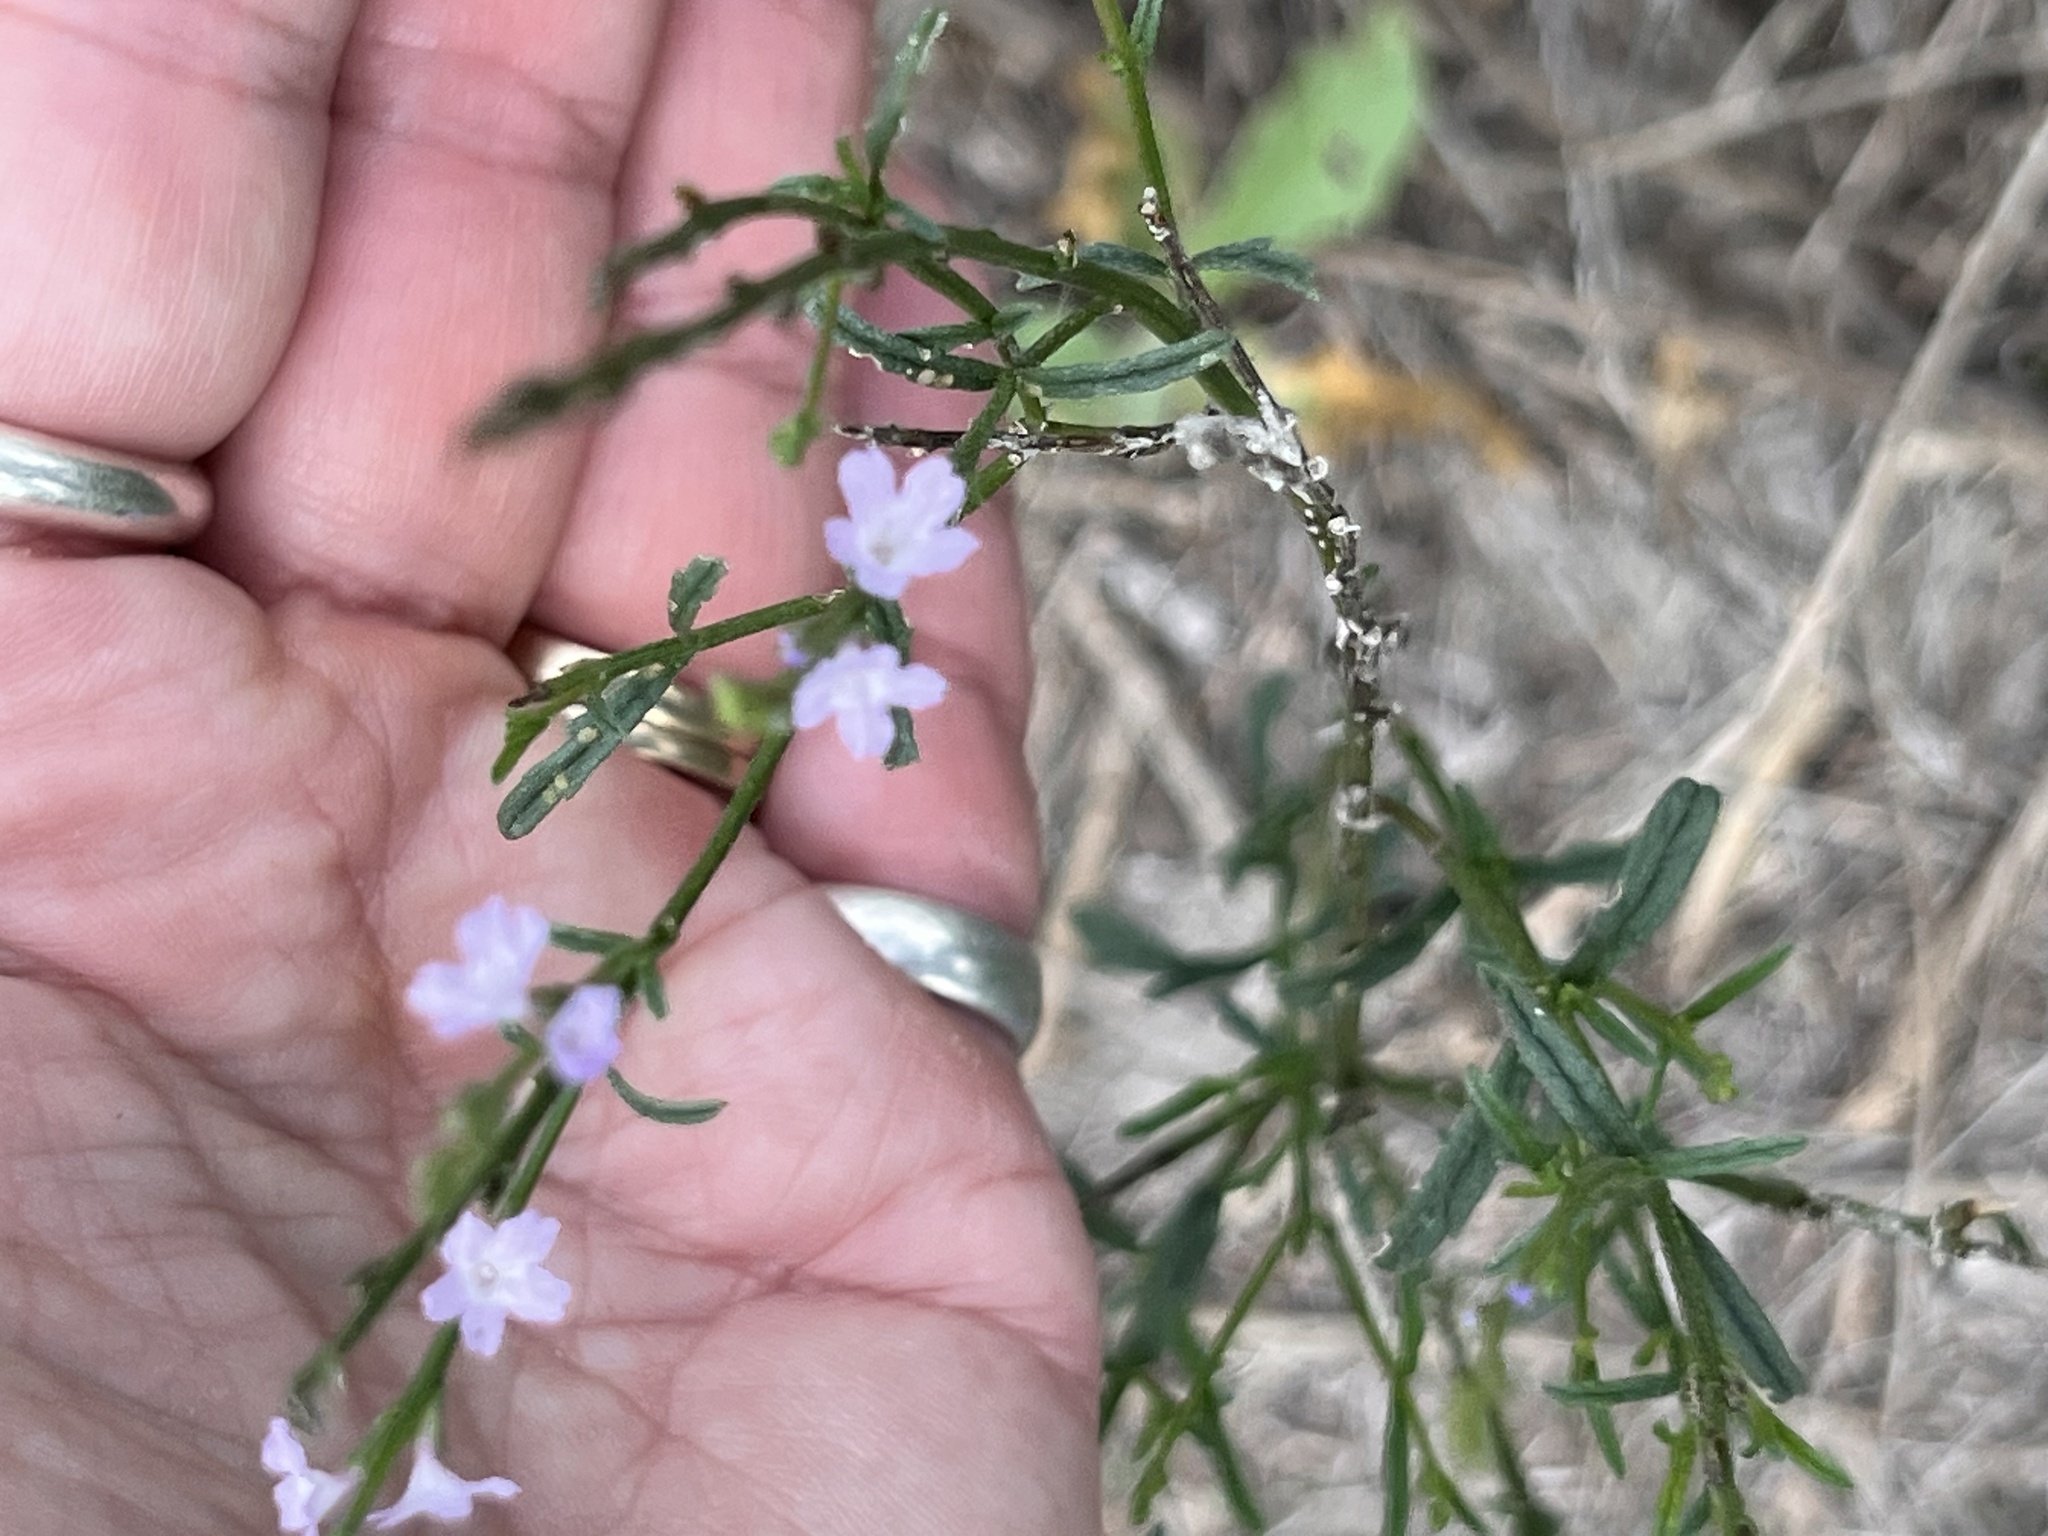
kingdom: Plantae
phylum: Tracheophyta
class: Magnoliopsida
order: Lamiales
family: Verbenaceae
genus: Verbena
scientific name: Verbena halei
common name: Texas vervain
